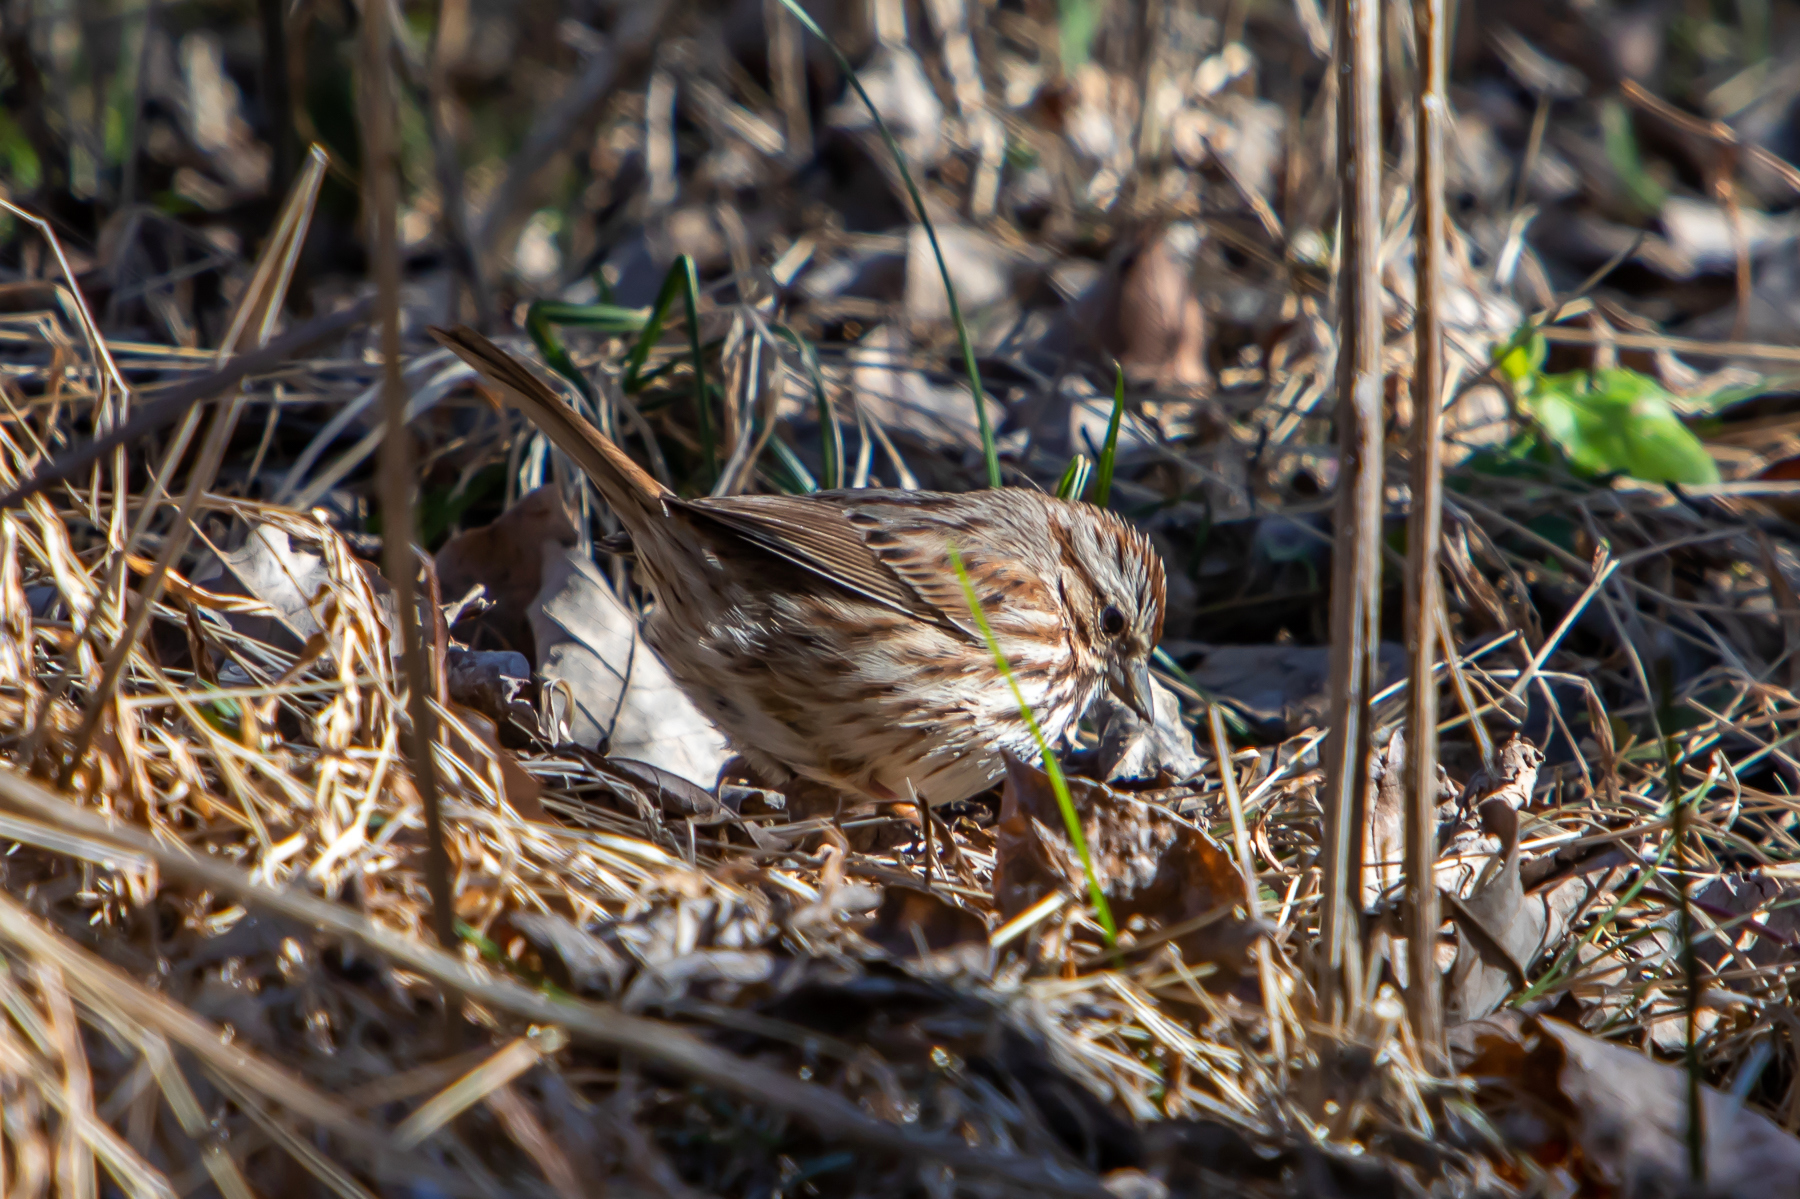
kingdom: Animalia
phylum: Chordata
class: Aves
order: Passeriformes
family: Passerellidae
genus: Melospiza
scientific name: Melospiza melodia
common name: Song sparrow
